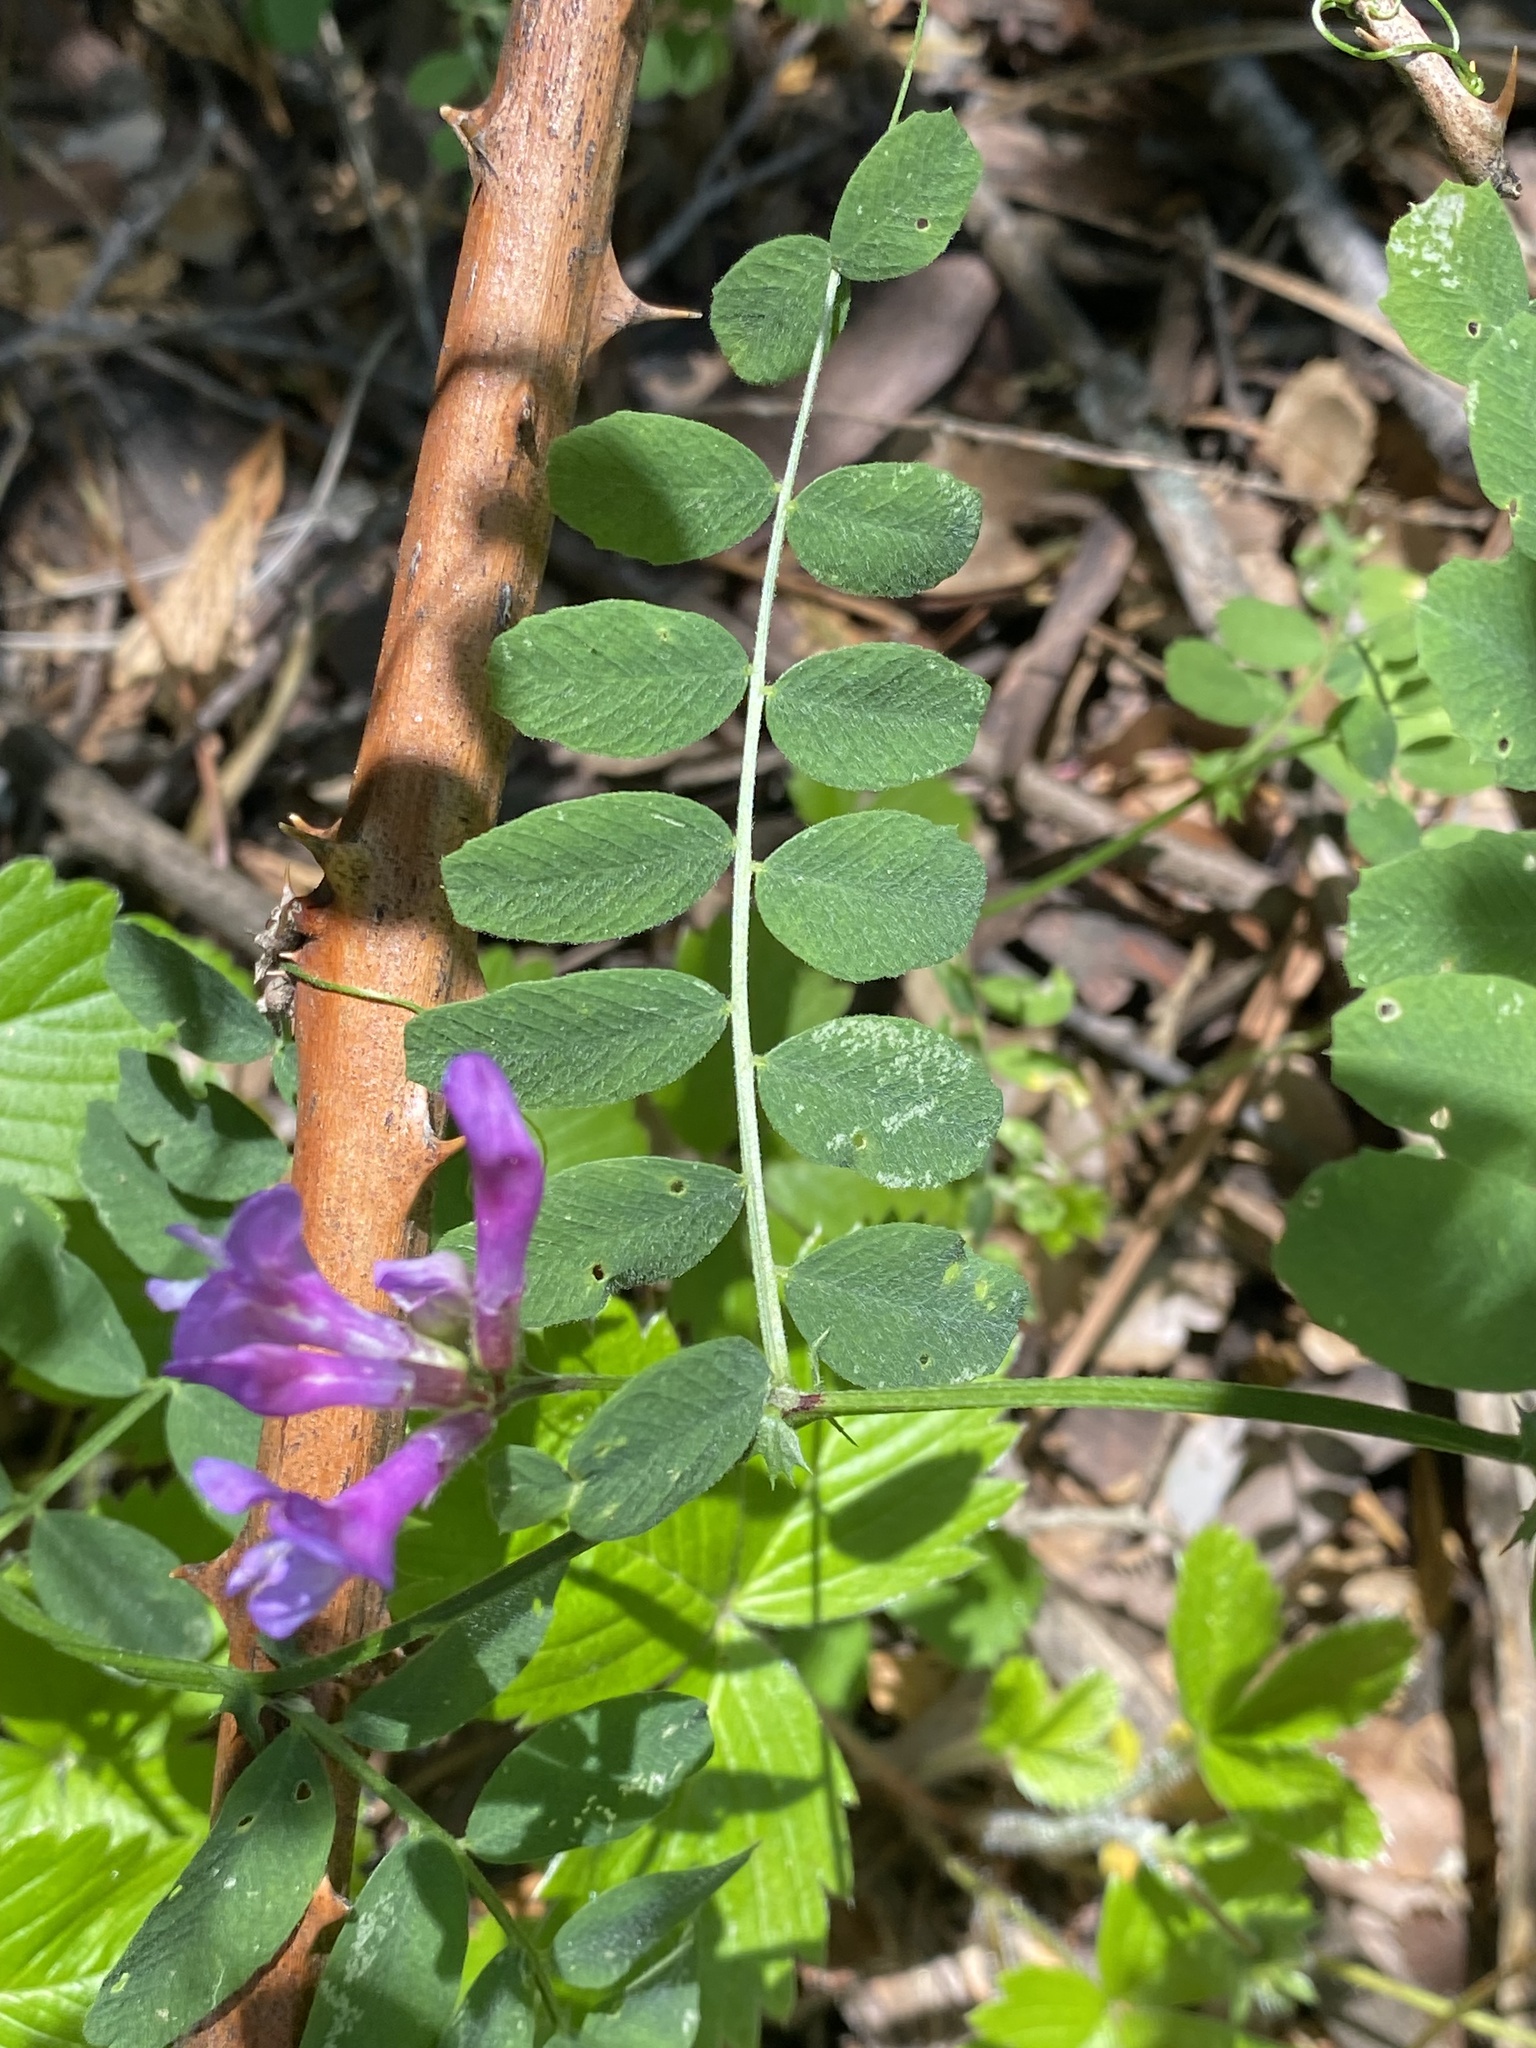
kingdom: Plantae
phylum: Tracheophyta
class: Magnoliopsida
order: Fabales
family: Fabaceae
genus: Vicia
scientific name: Vicia americana
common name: American vetch
